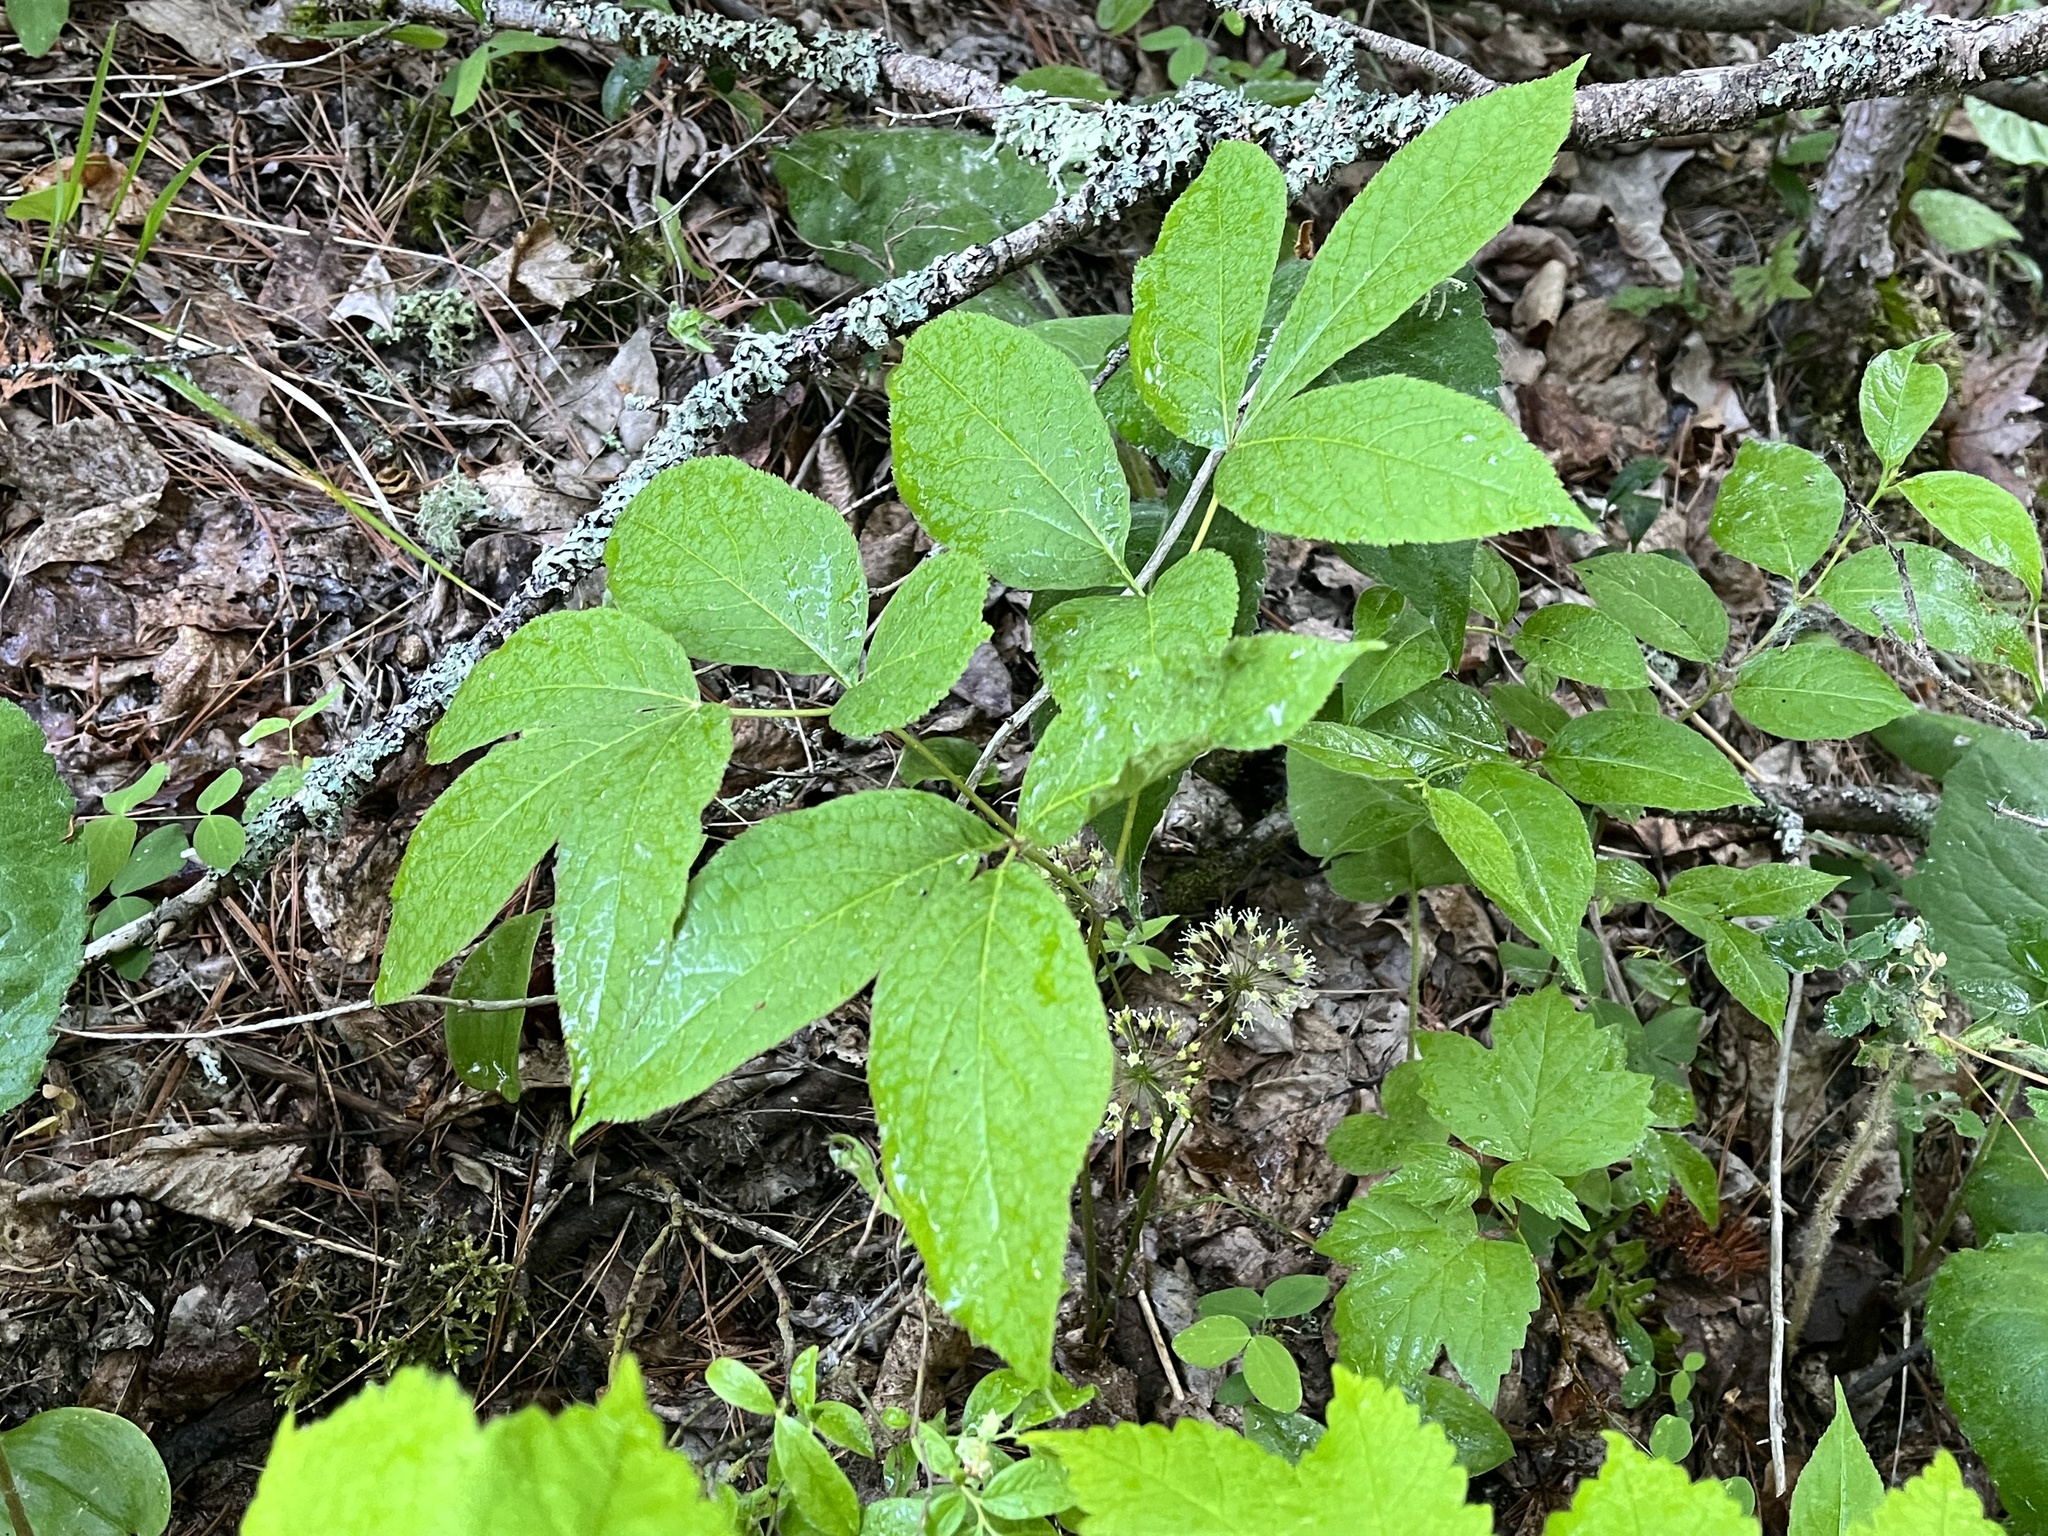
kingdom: Plantae
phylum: Tracheophyta
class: Magnoliopsida
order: Apiales
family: Araliaceae
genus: Aralia
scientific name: Aralia nudicaulis
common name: Wild sarsaparilla
